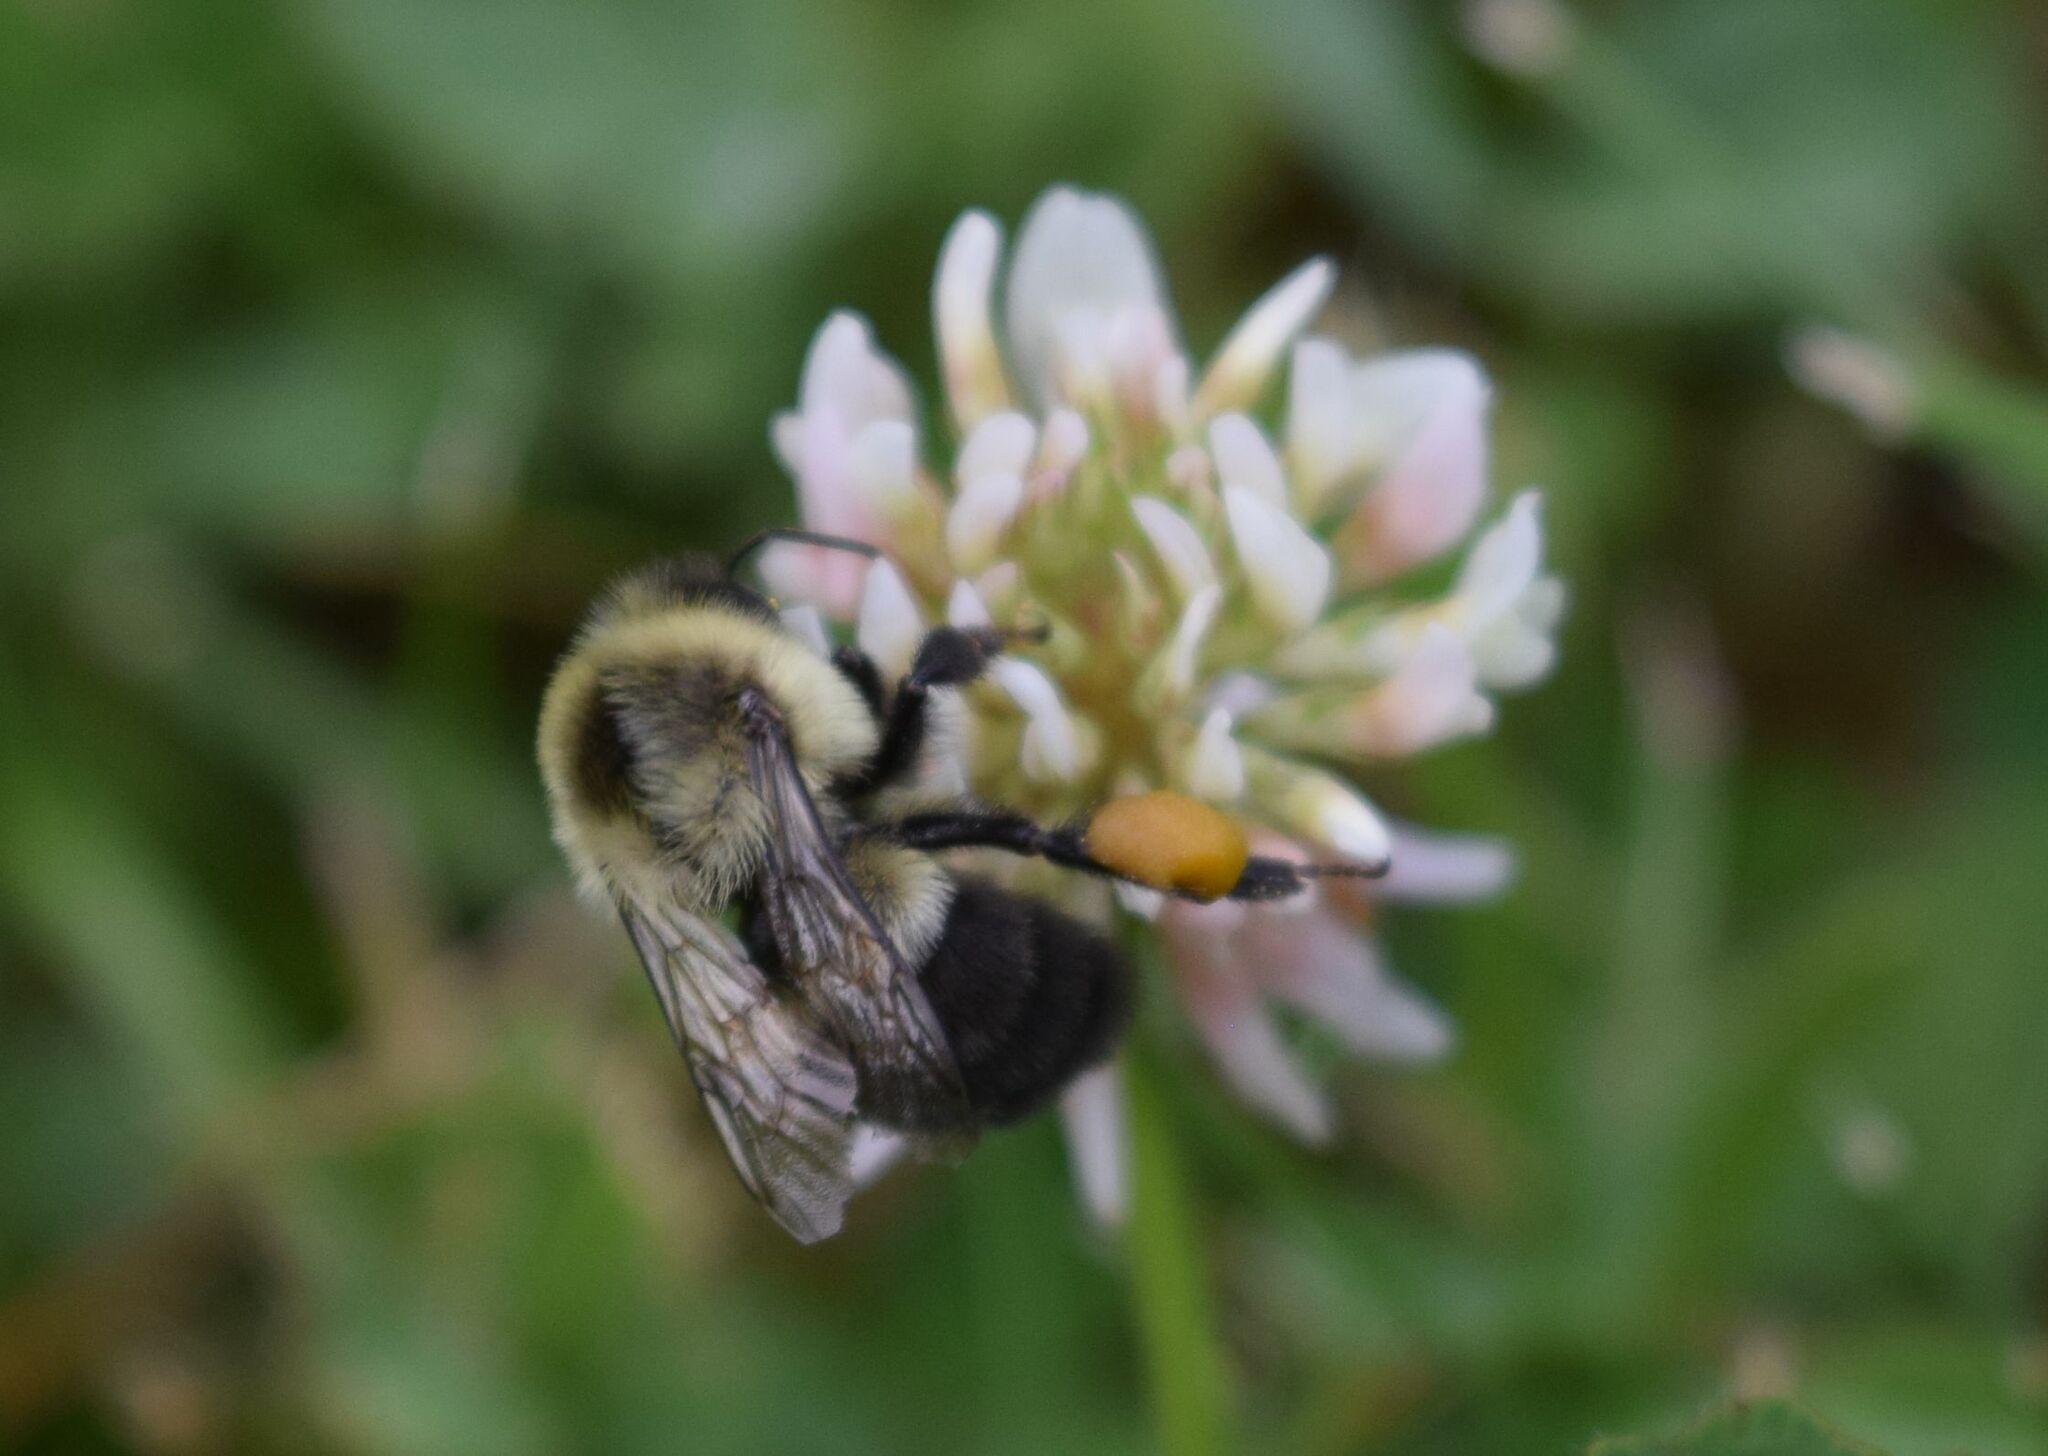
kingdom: Animalia
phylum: Arthropoda
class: Insecta
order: Hymenoptera
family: Apidae
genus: Bombus
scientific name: Bombus impatiens
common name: Common eastern bumble bee
